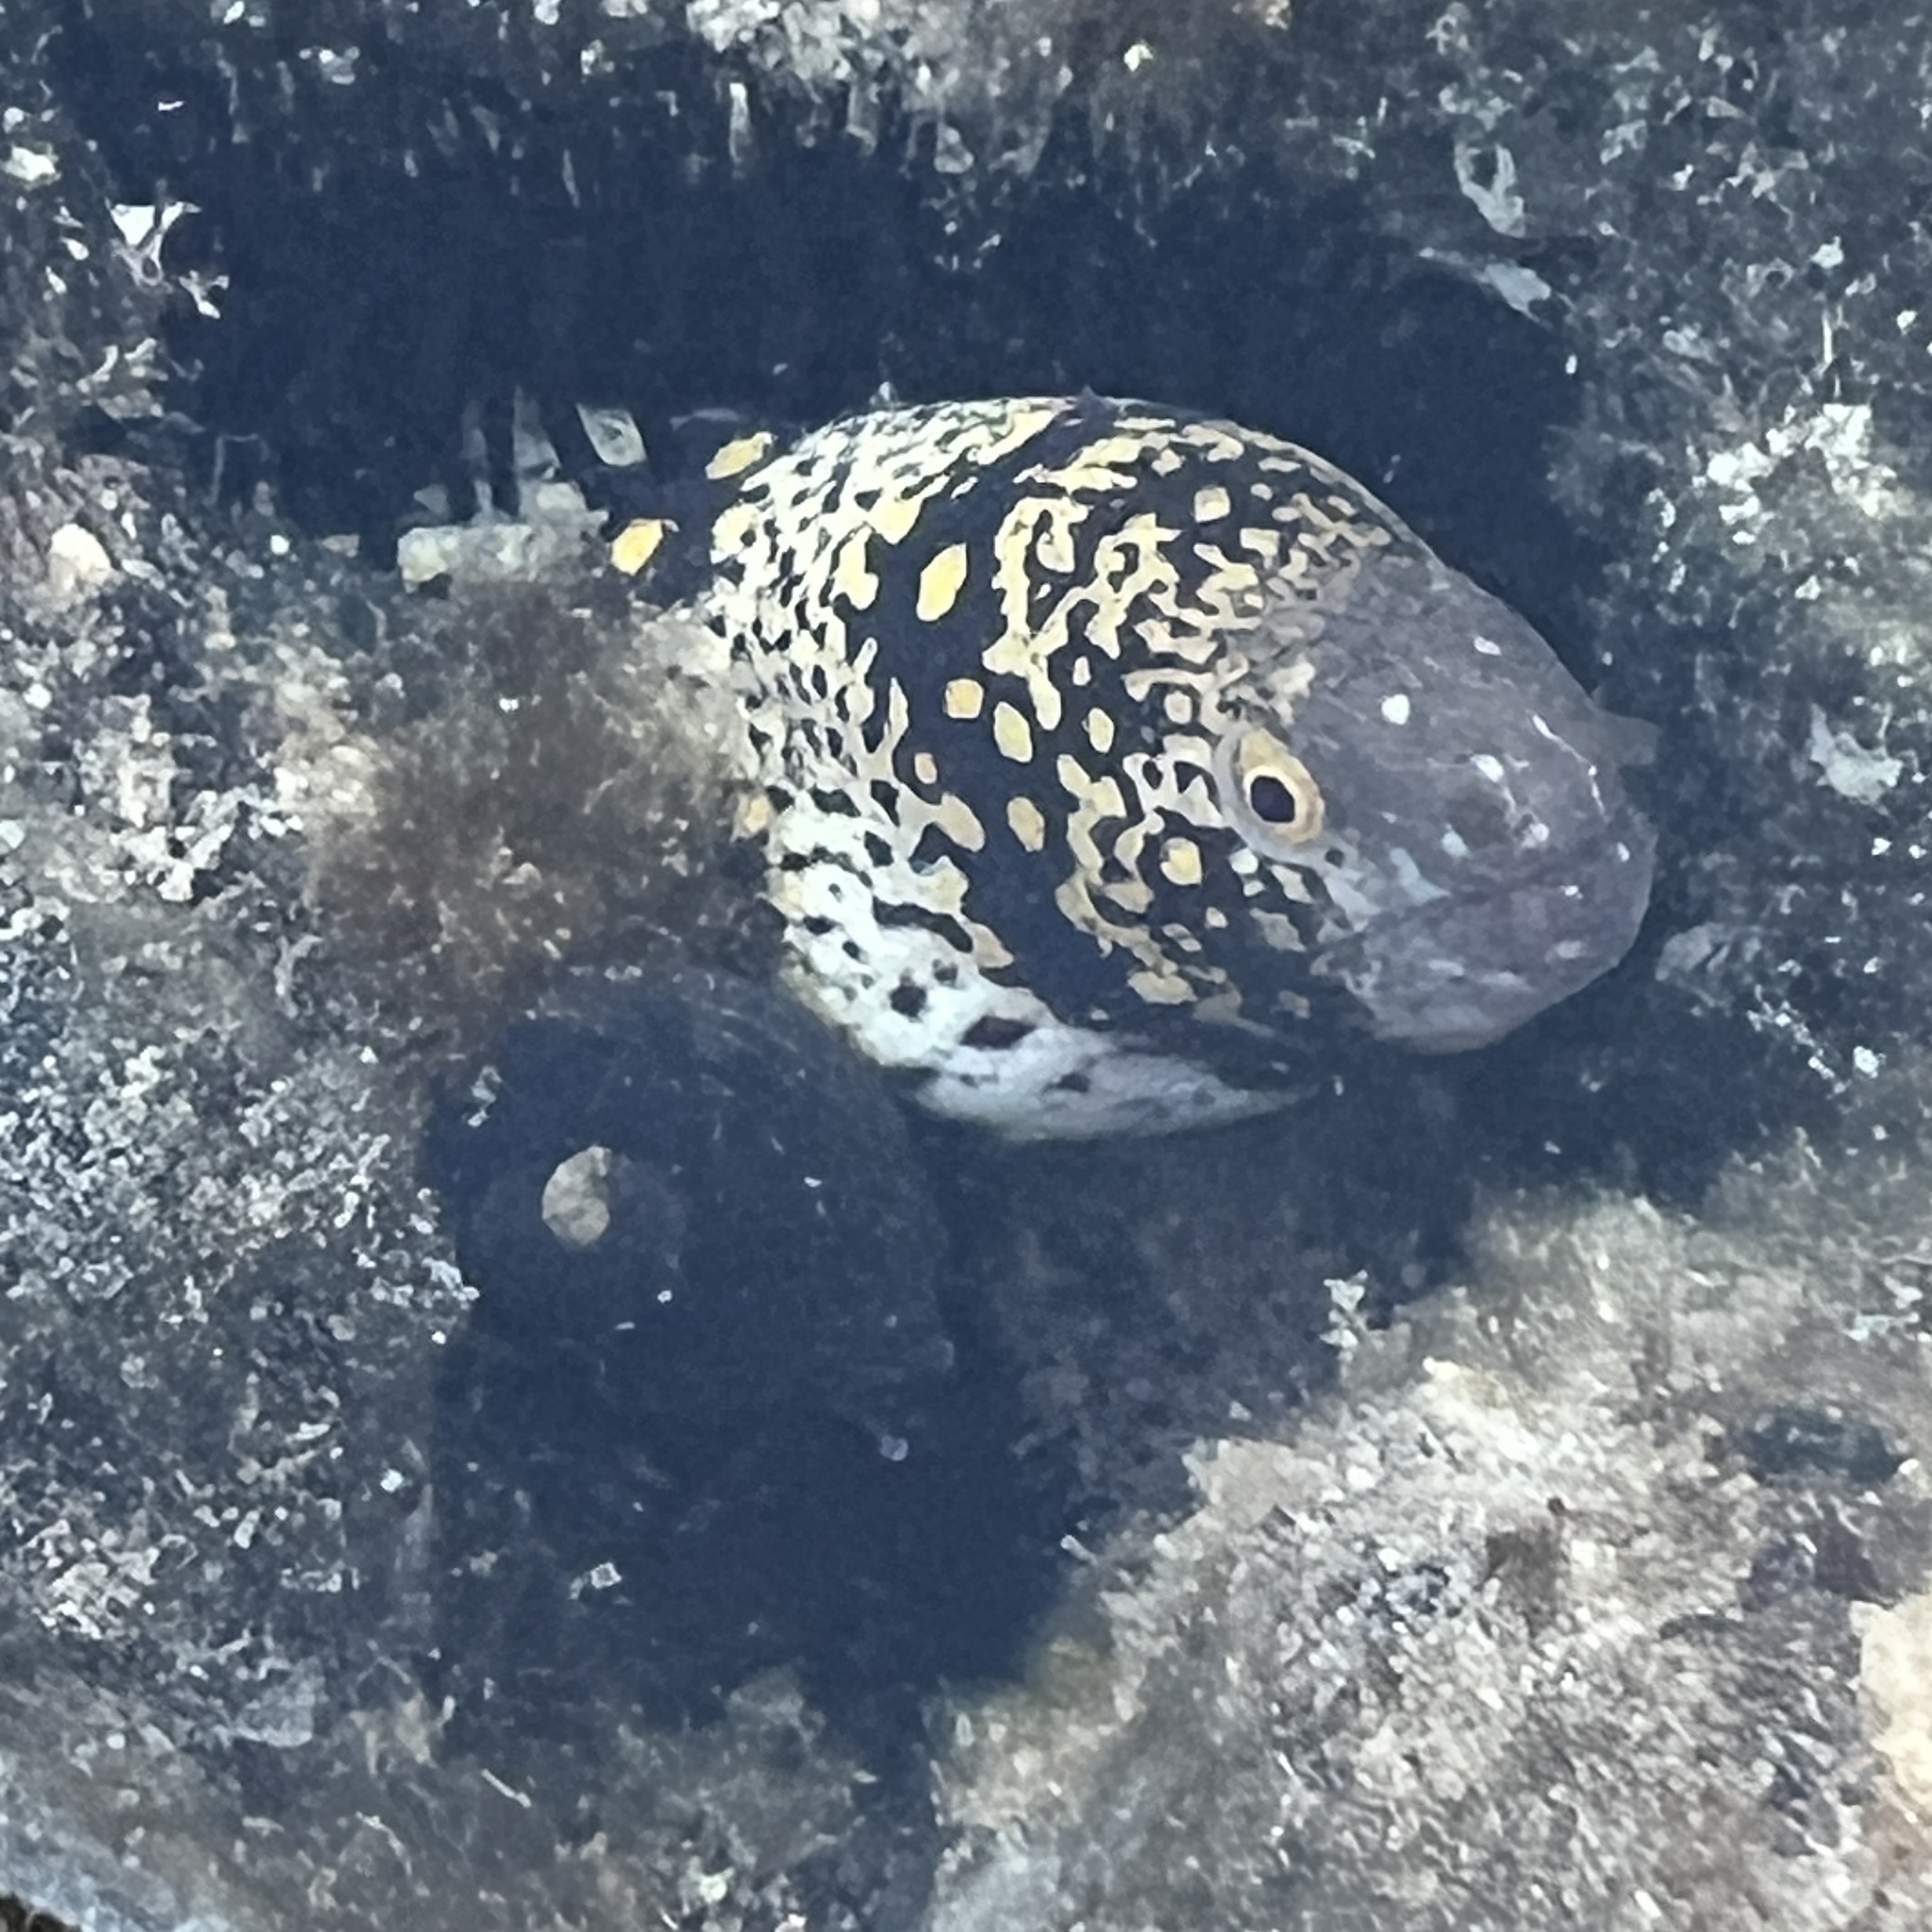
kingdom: Animalia
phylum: Chordata
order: Anguilliformes
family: Muraenidae
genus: Echidna
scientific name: Echidna nebulosa
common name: Snowflake moray
